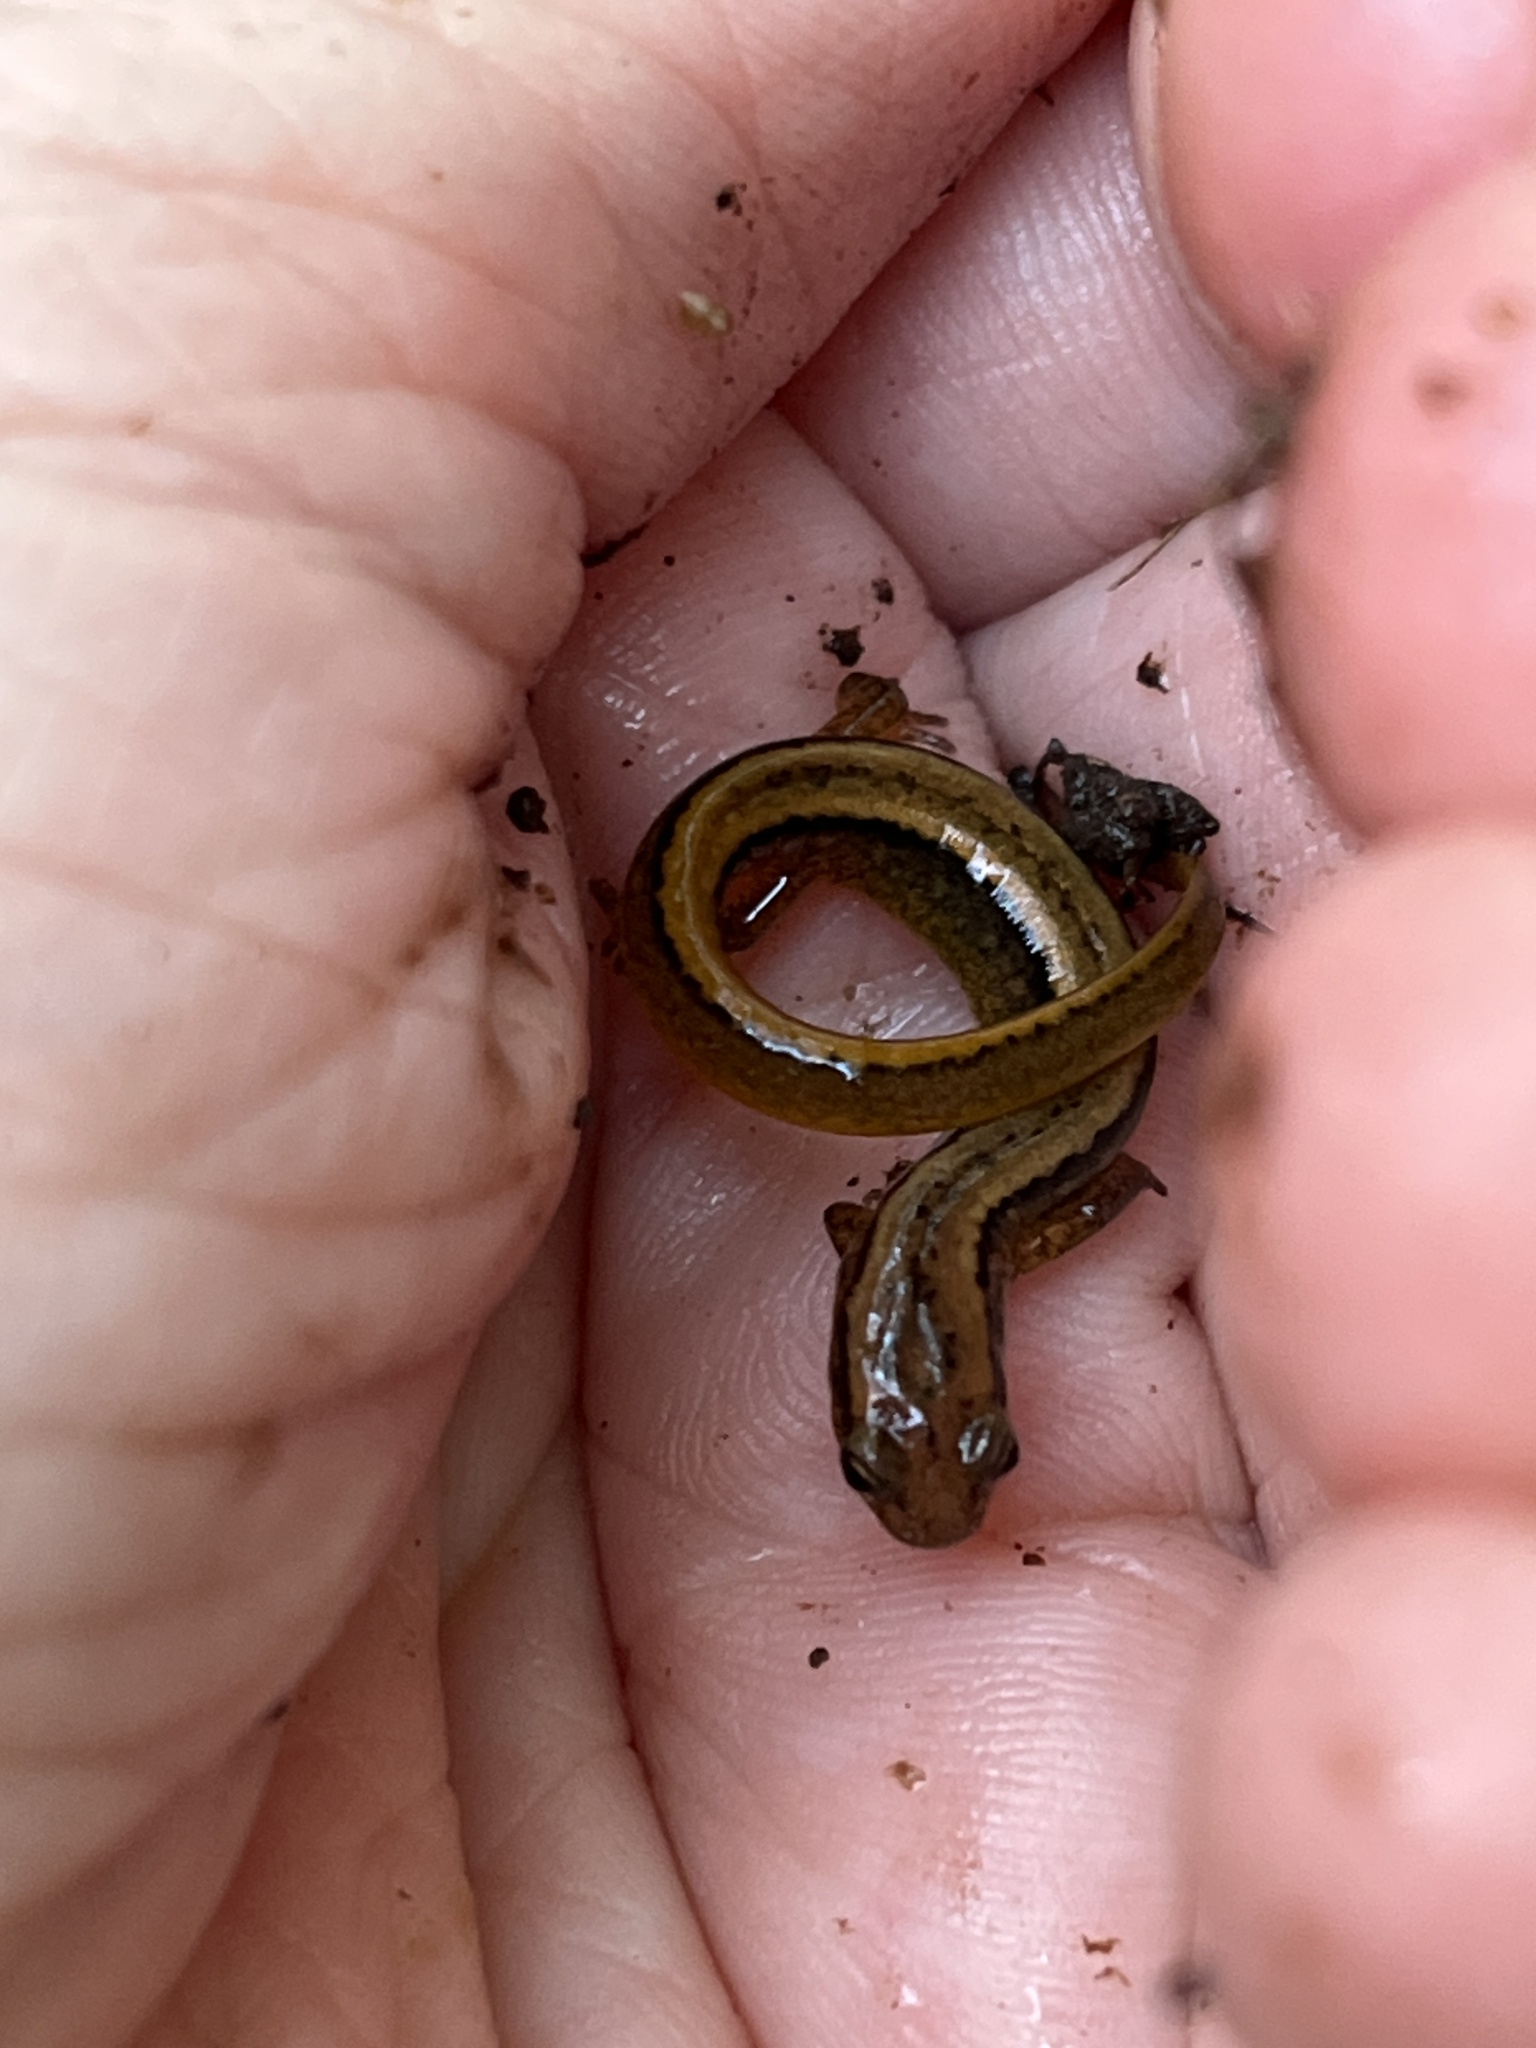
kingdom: Animalia
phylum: Chordata
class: Amphibia
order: Caudata
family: Plethodontidae
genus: Eurycea
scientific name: Eurycea bislineata
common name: Northern two-lined salamander
